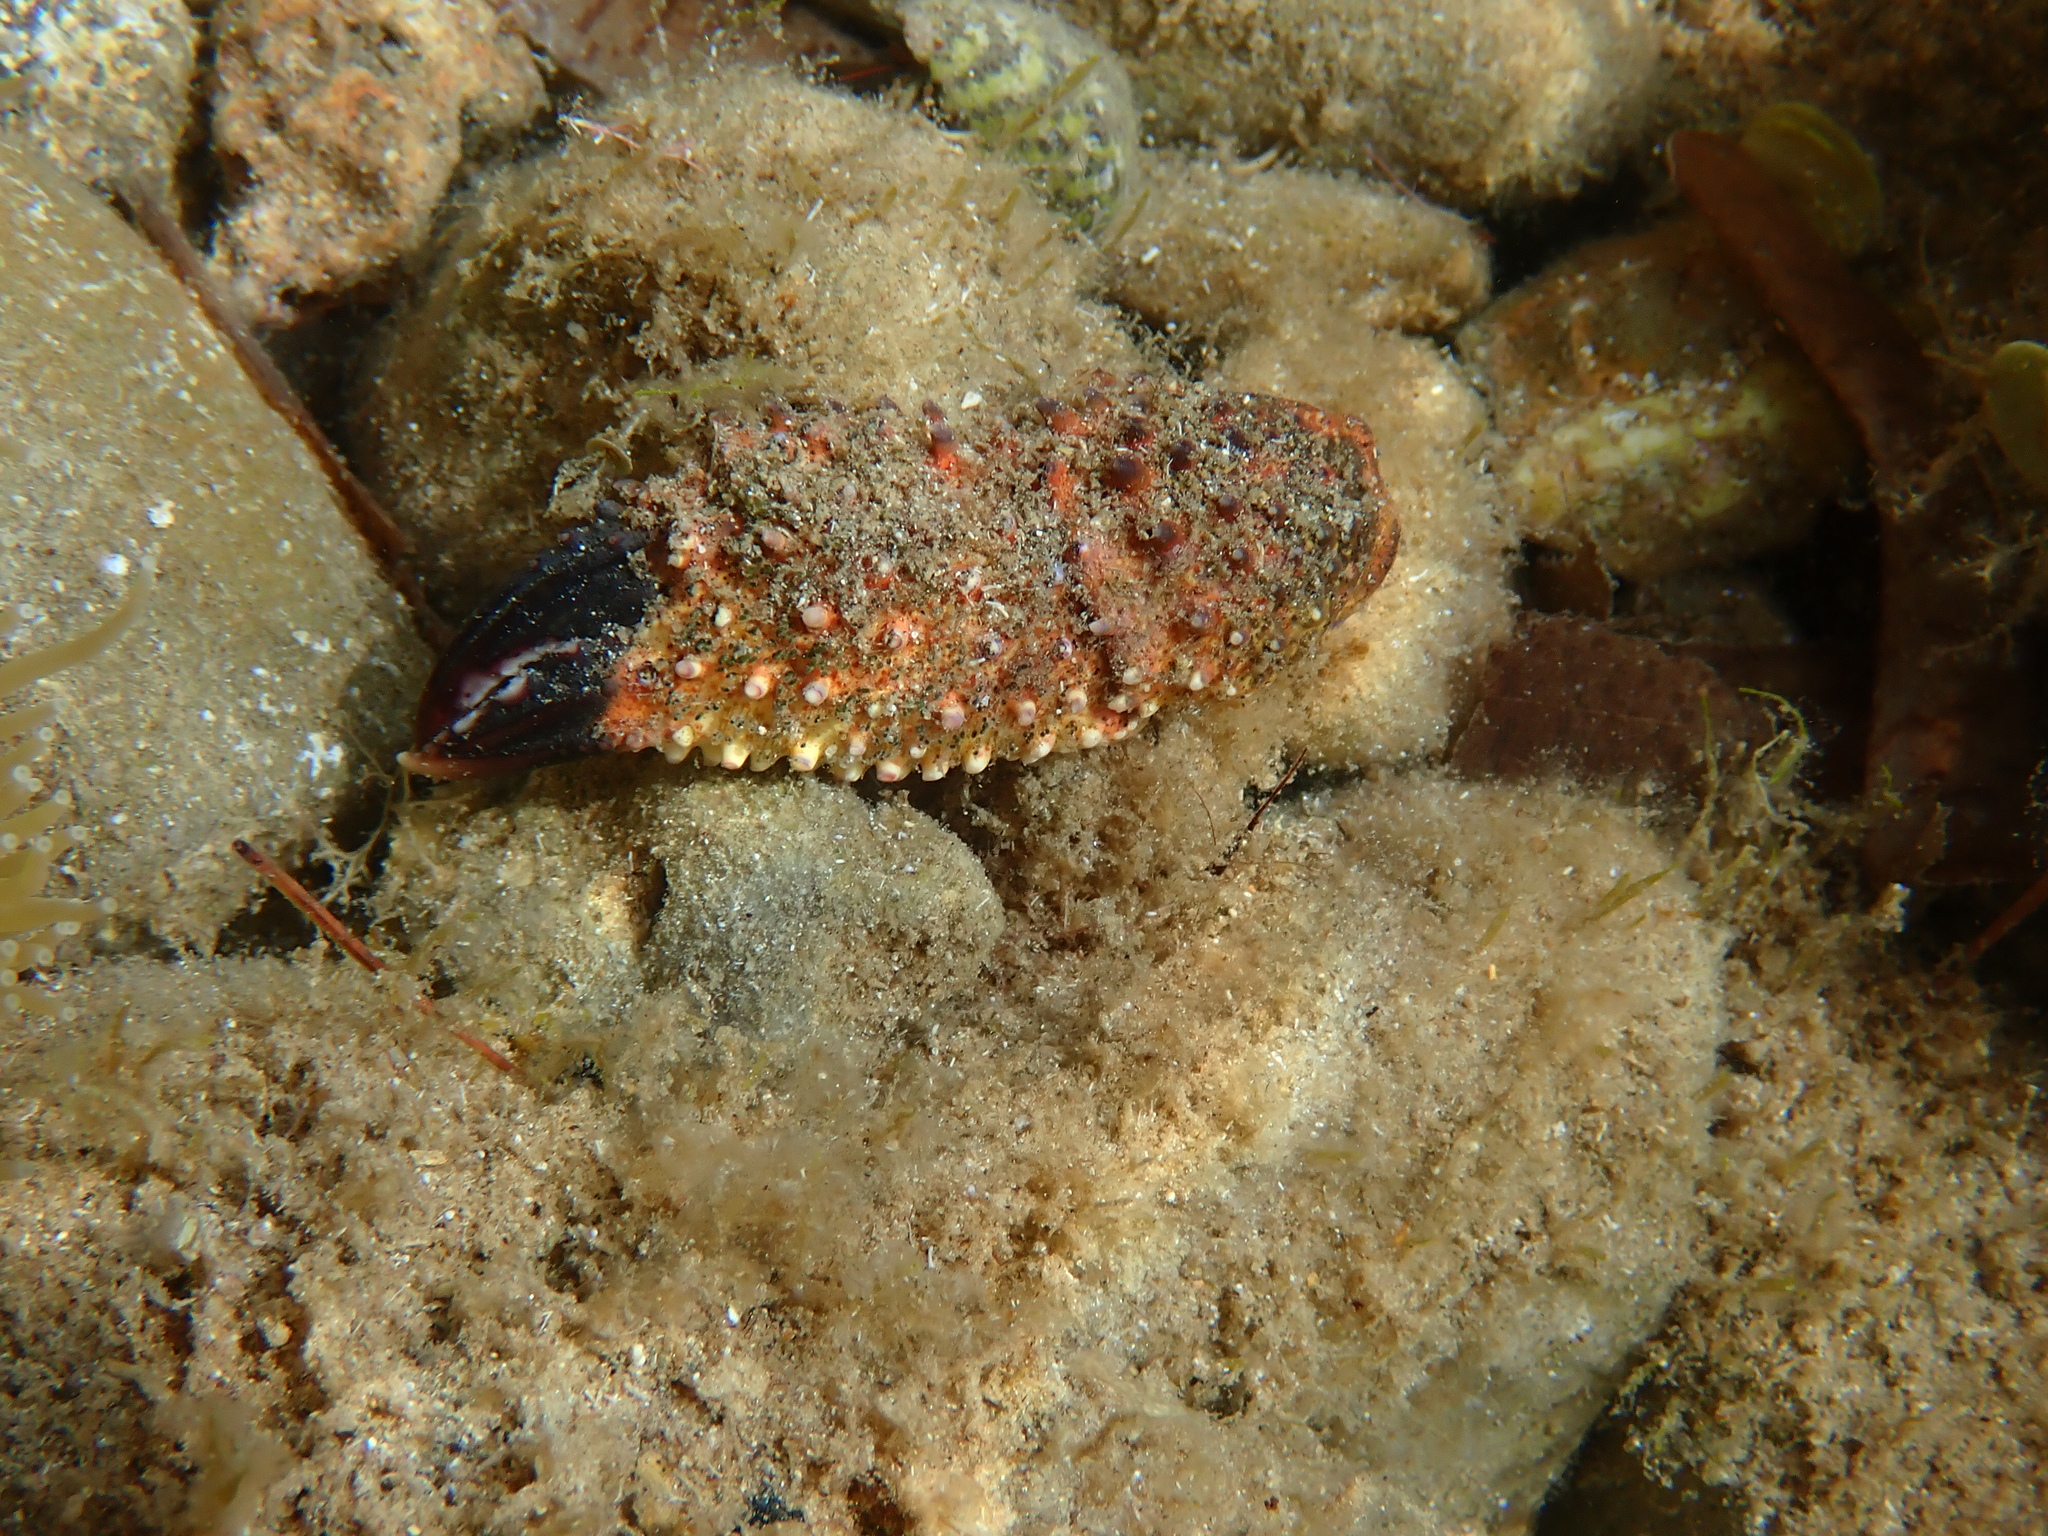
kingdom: Animalia
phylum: Arthropoda
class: Malacostraca
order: Decapoda
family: Eriphiidae
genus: Eriphia
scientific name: Eriphia verrucosa
